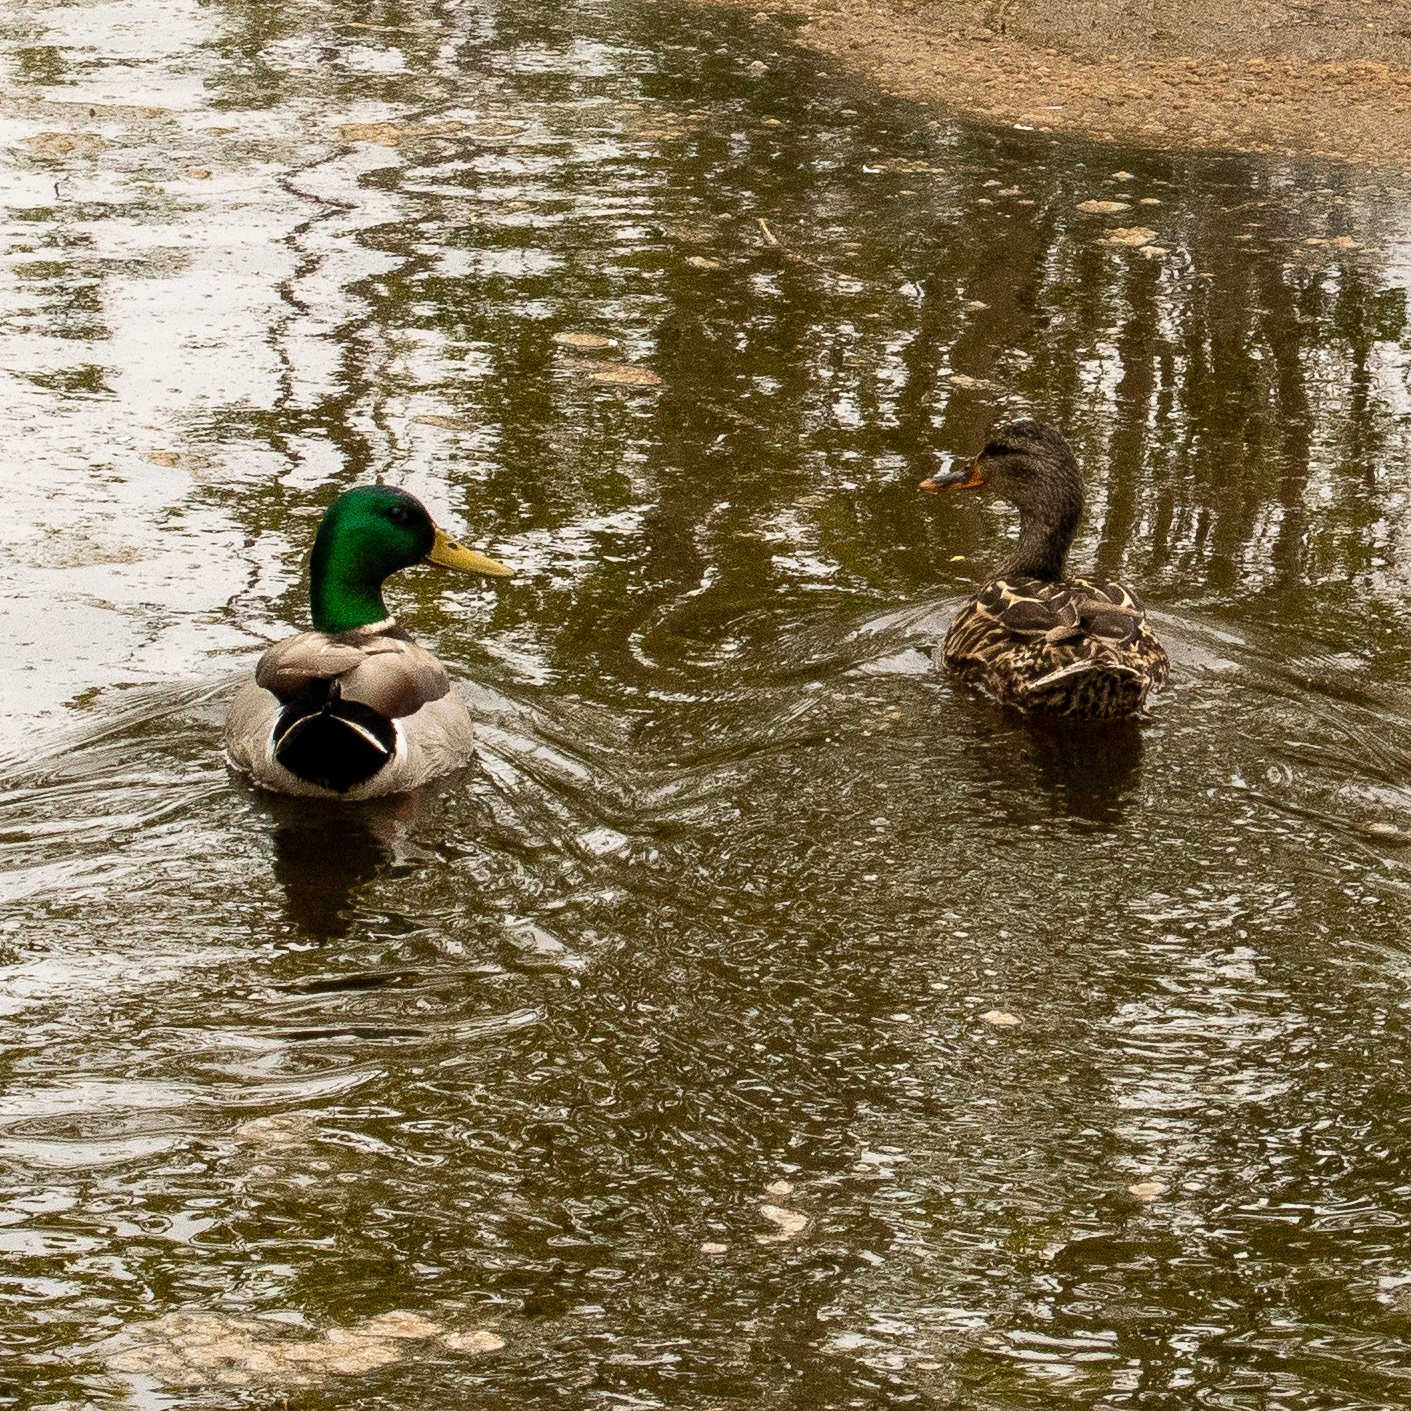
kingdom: Animalia
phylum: Chordata
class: Aves
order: Anseriformes
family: Anatidae
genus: Anas
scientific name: Anas platyrhynchos
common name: Mallard
